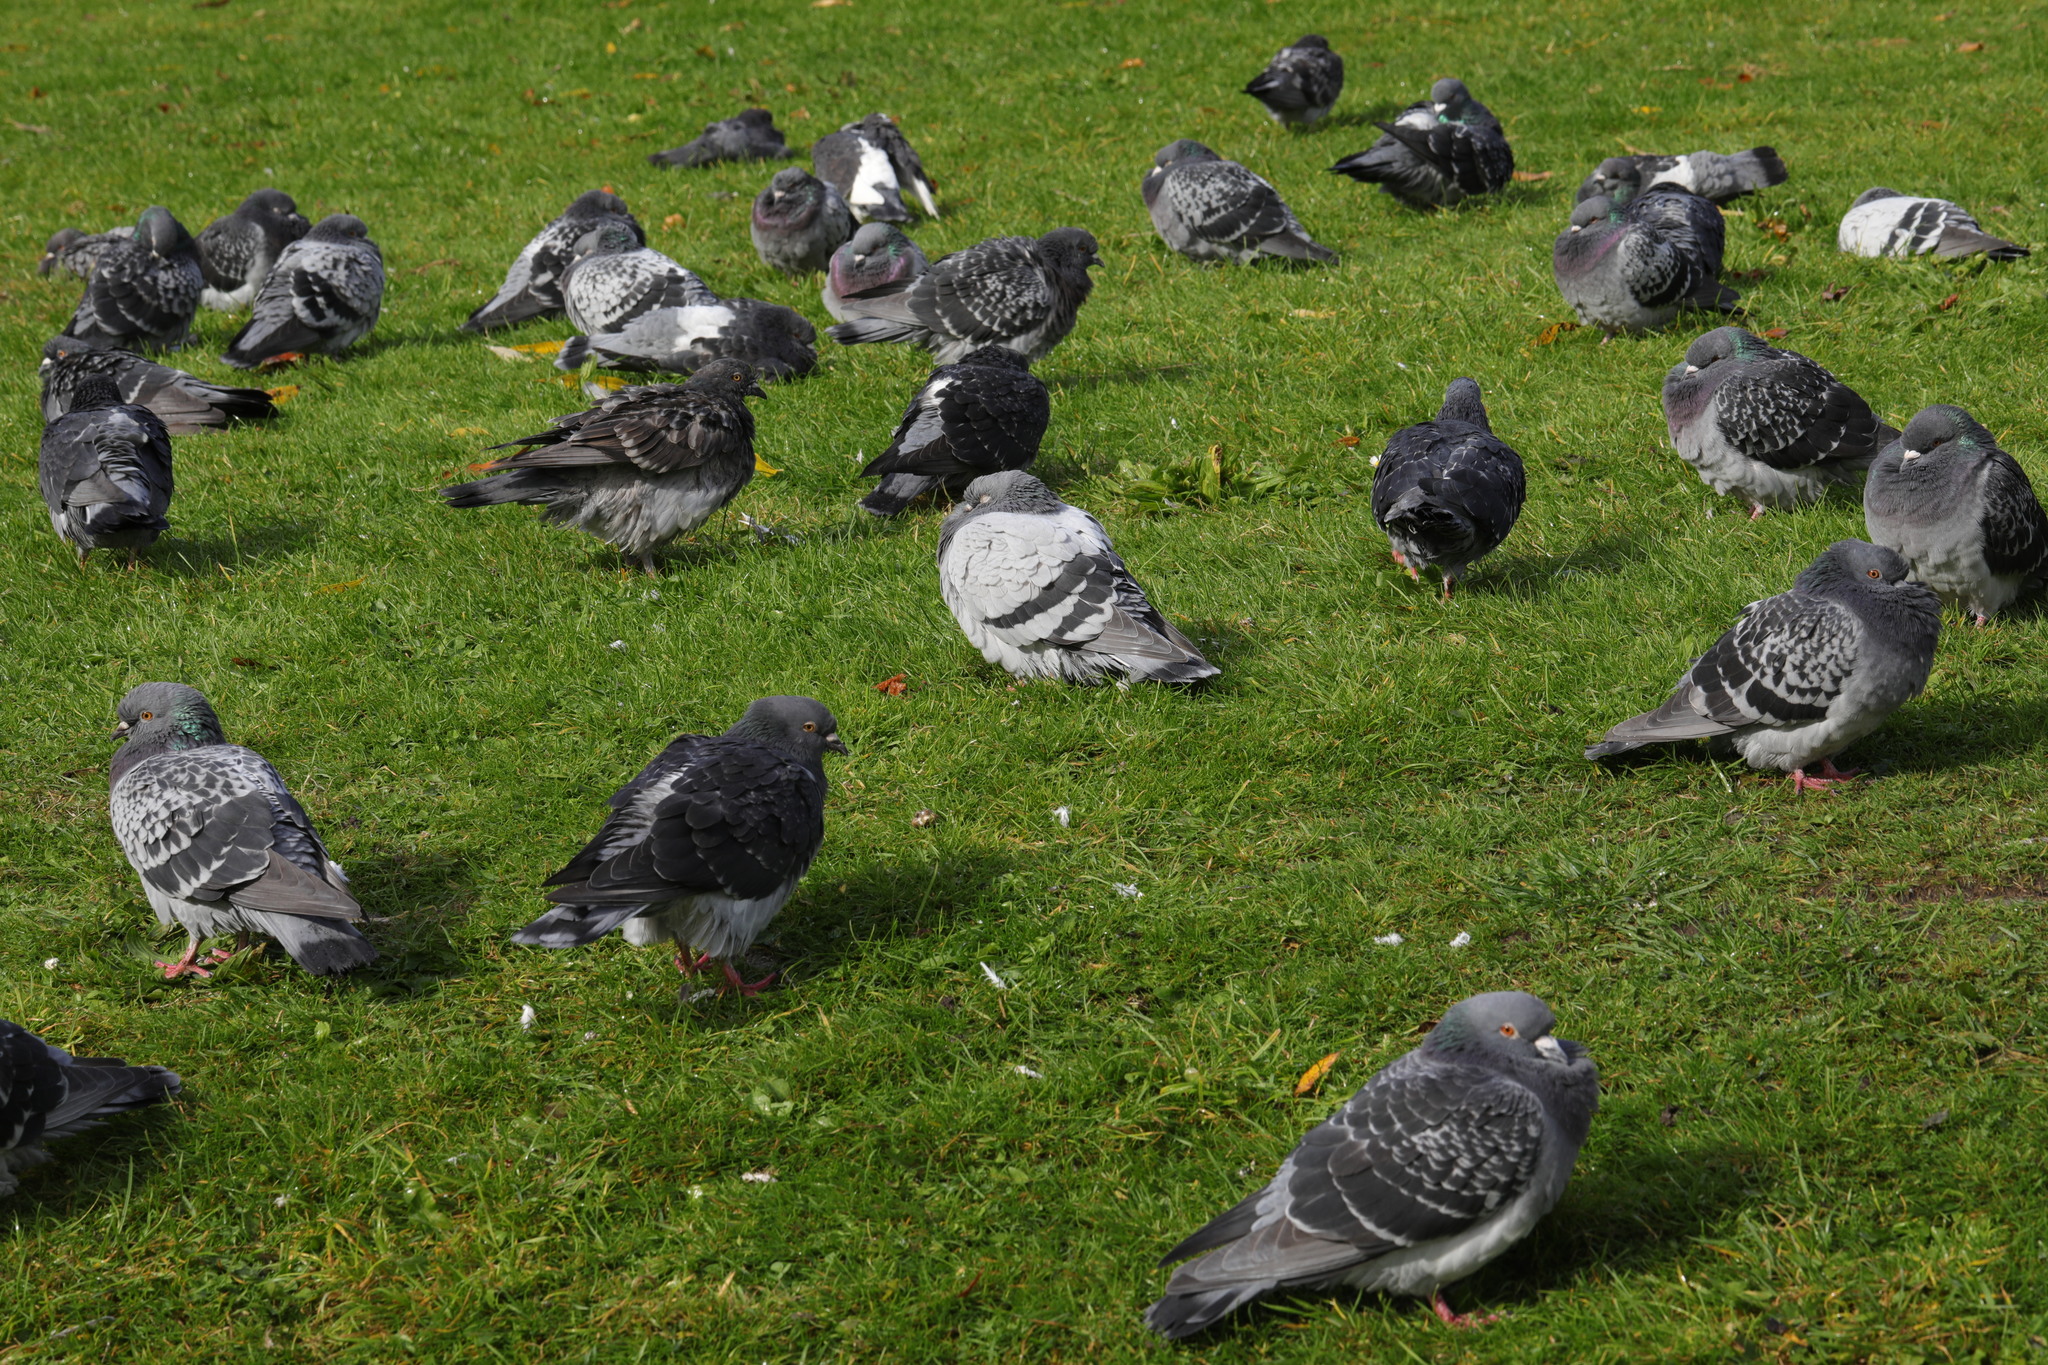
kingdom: Animalia
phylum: Chordata
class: Aves
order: Columbiformes
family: Columbidae
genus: Columba
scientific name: Columba livia
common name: Rock pigeon
